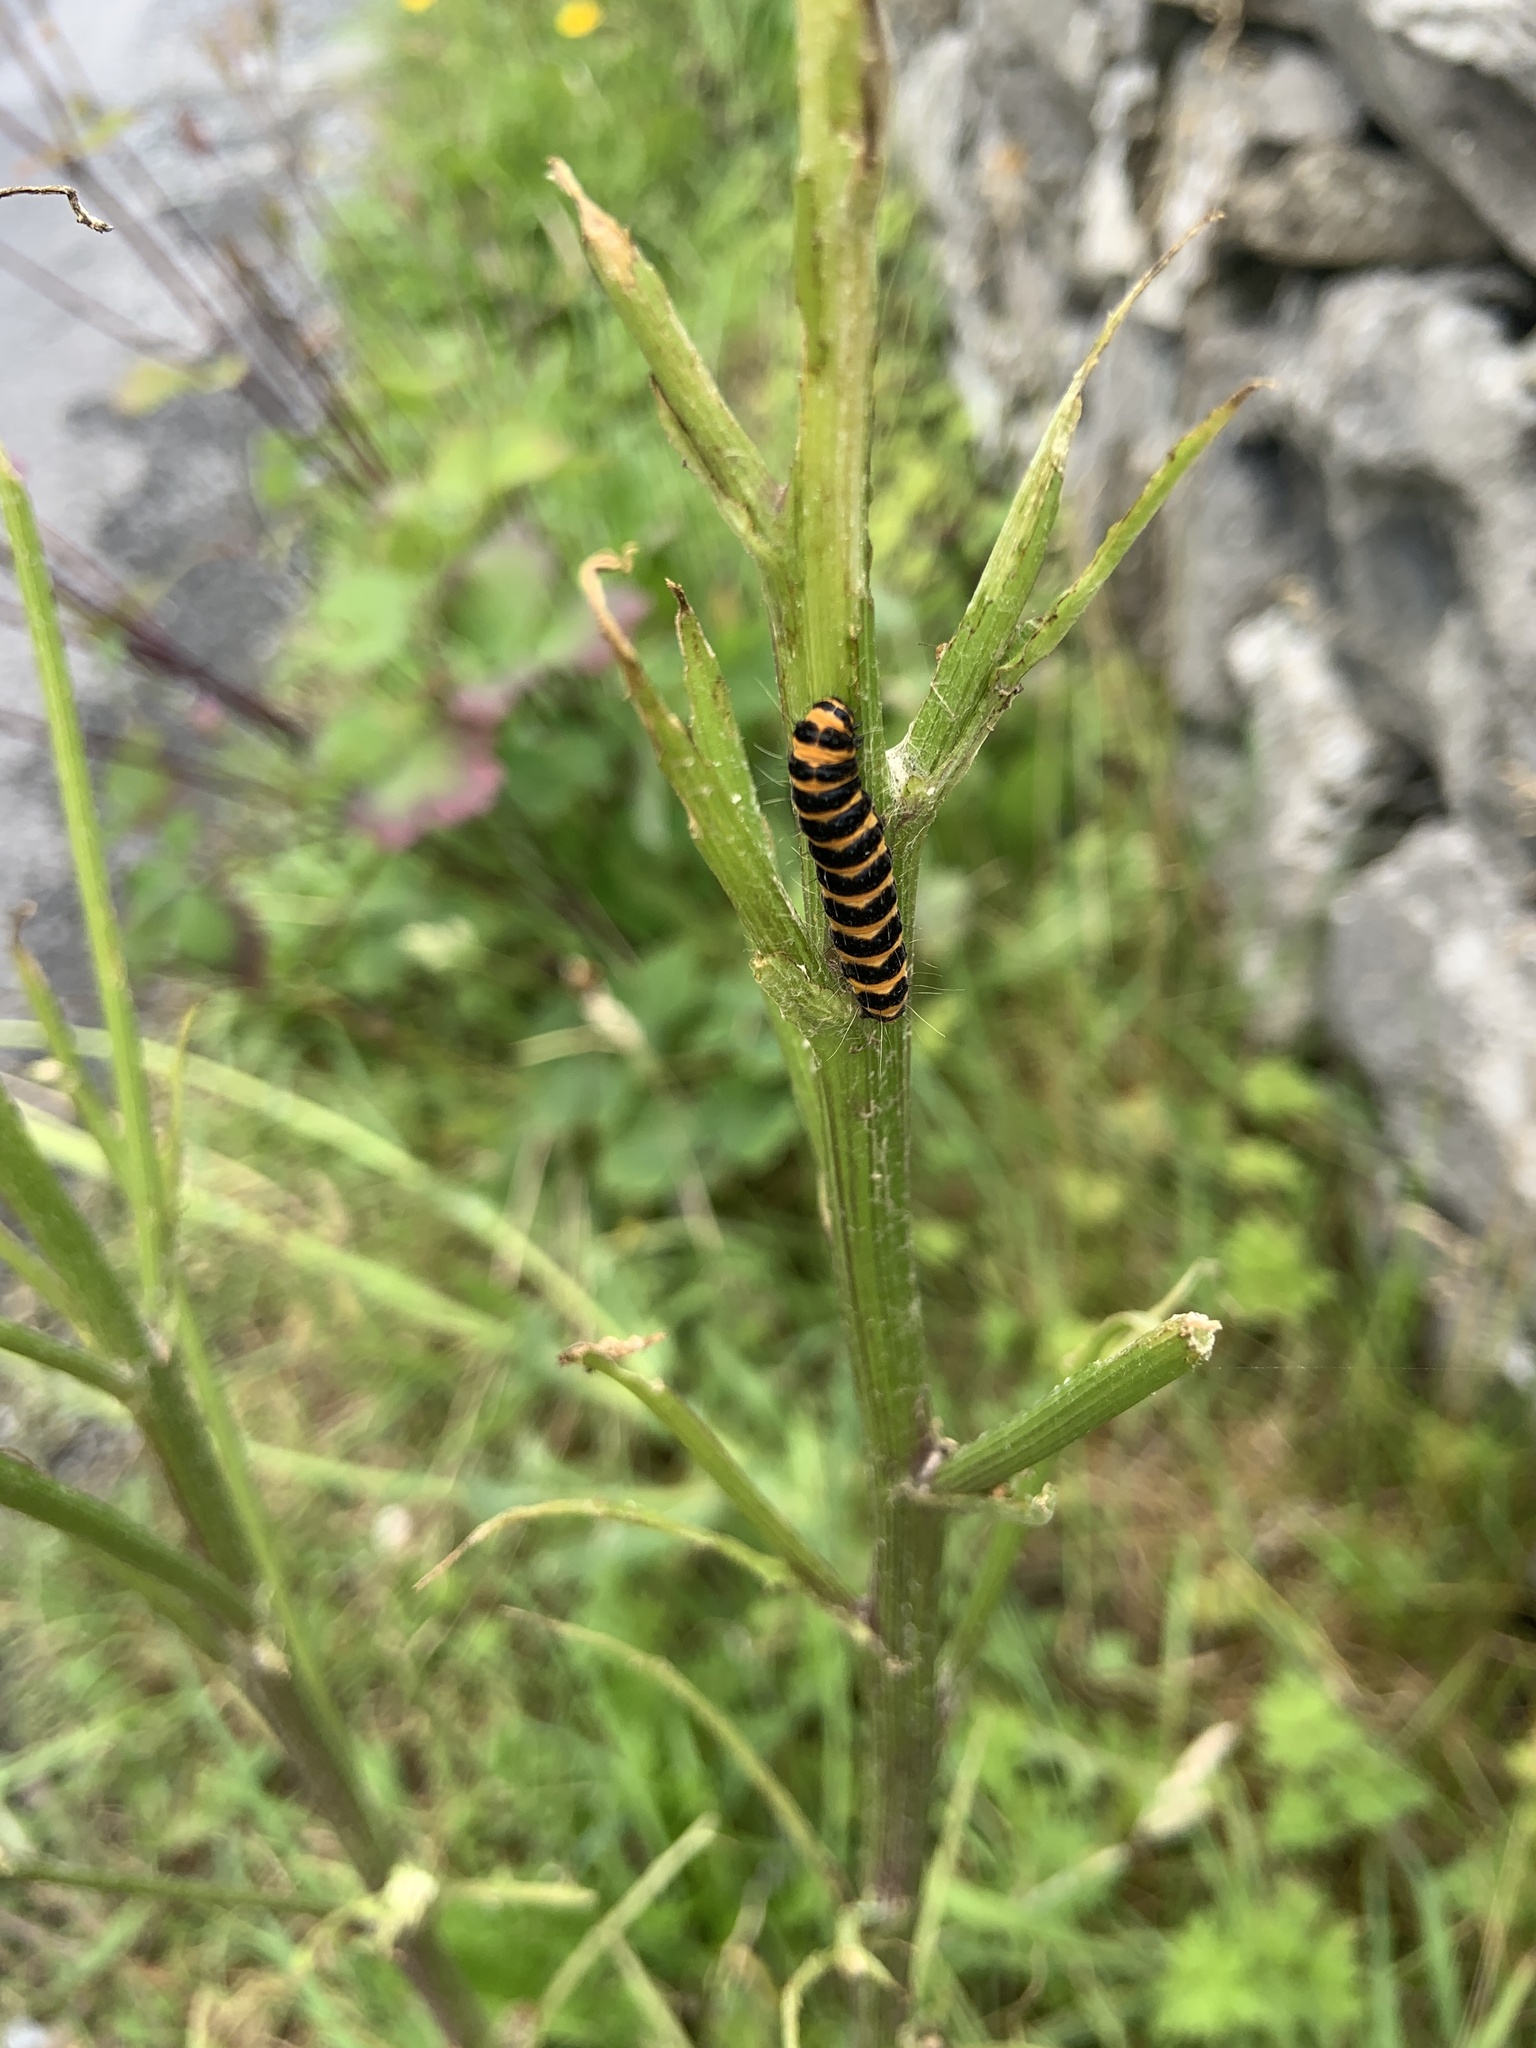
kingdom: Animalia
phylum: Arthropoda
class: Insecta
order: Lepidoptera
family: Erebidae
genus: Tyria
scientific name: Tyria jacobaeae
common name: Cinnabar
